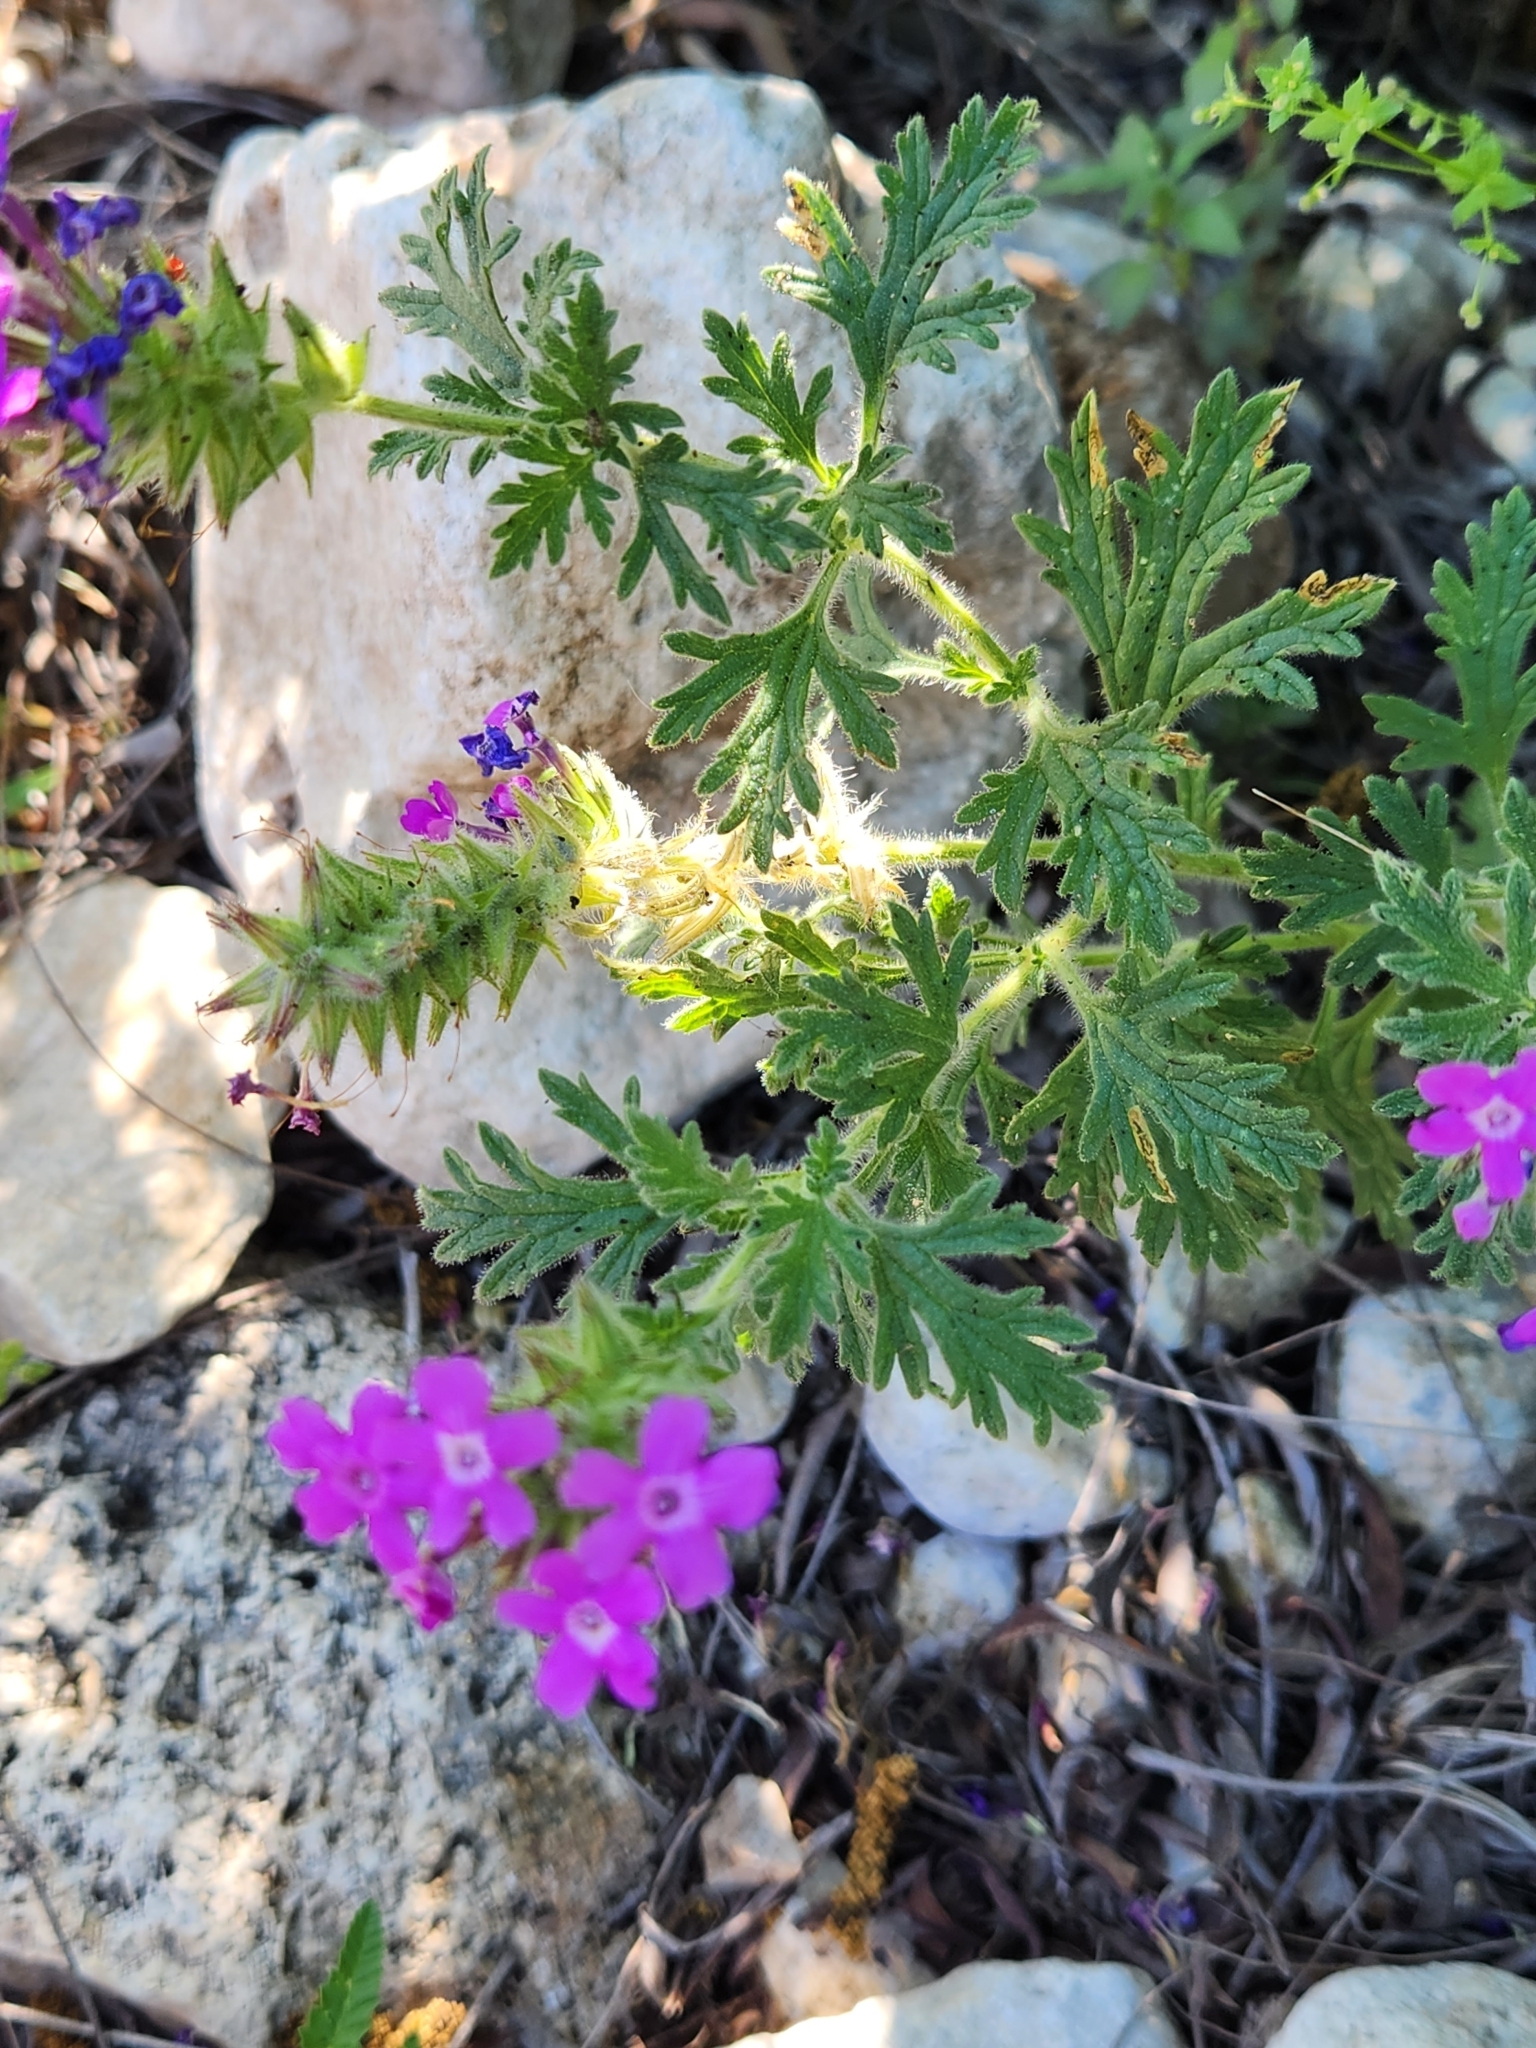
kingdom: Plantae
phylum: Tracheophyta
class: Magnoliopsida
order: Lamiales
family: Verbenaceae
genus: Verbena
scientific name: Verbena tumidula
